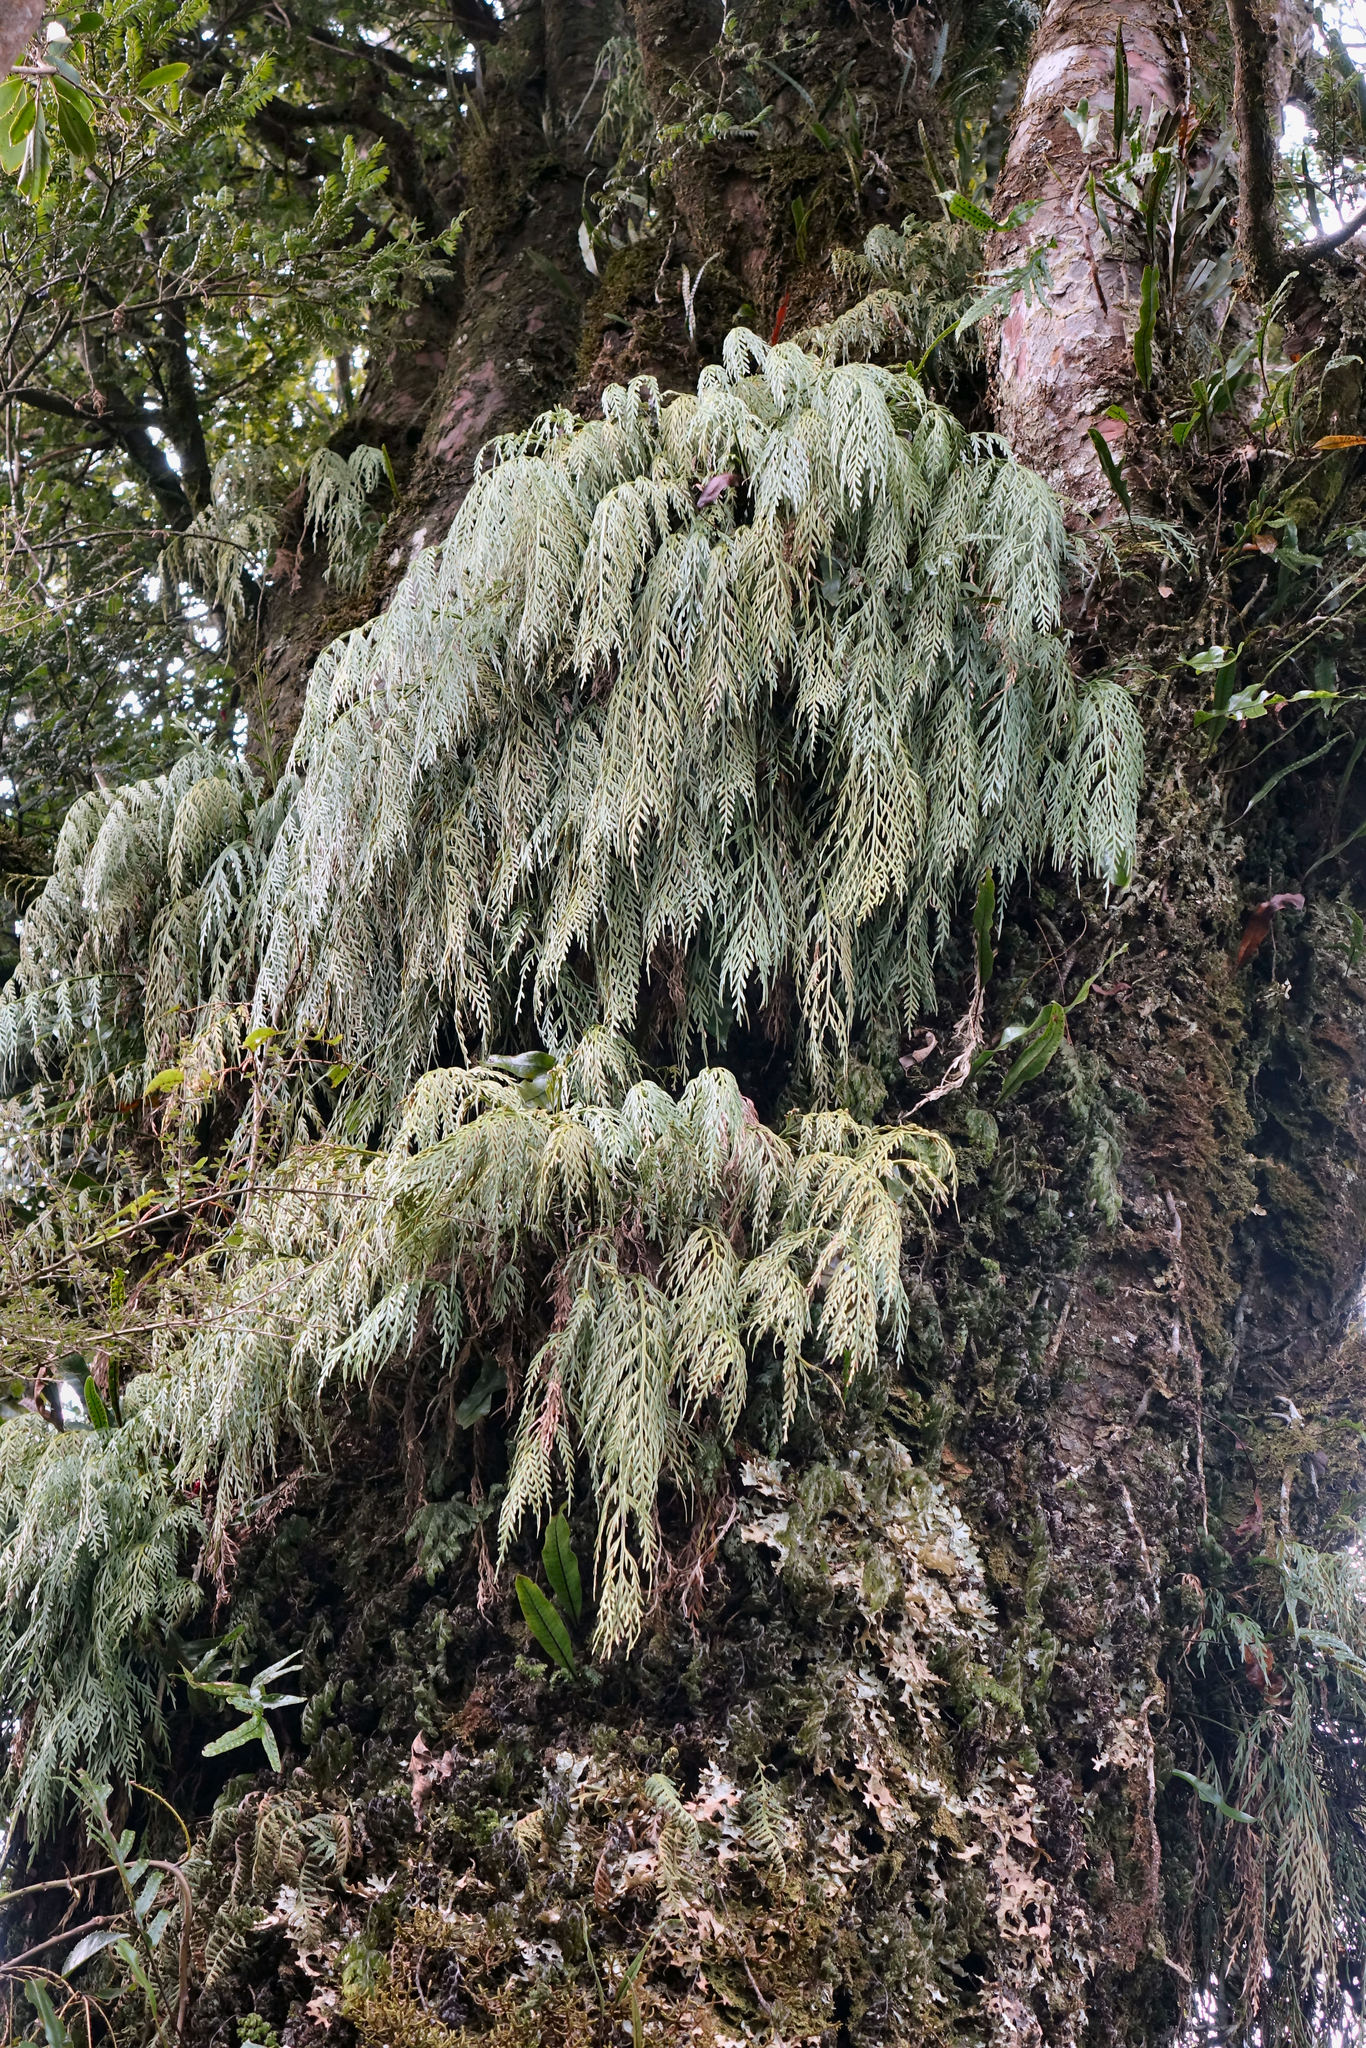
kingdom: Plantae
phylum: Tracheophyta
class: Polypodiopsida
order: Polypodiales
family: Aspleniaceae
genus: Asplenium
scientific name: Asplenium flaccidum
